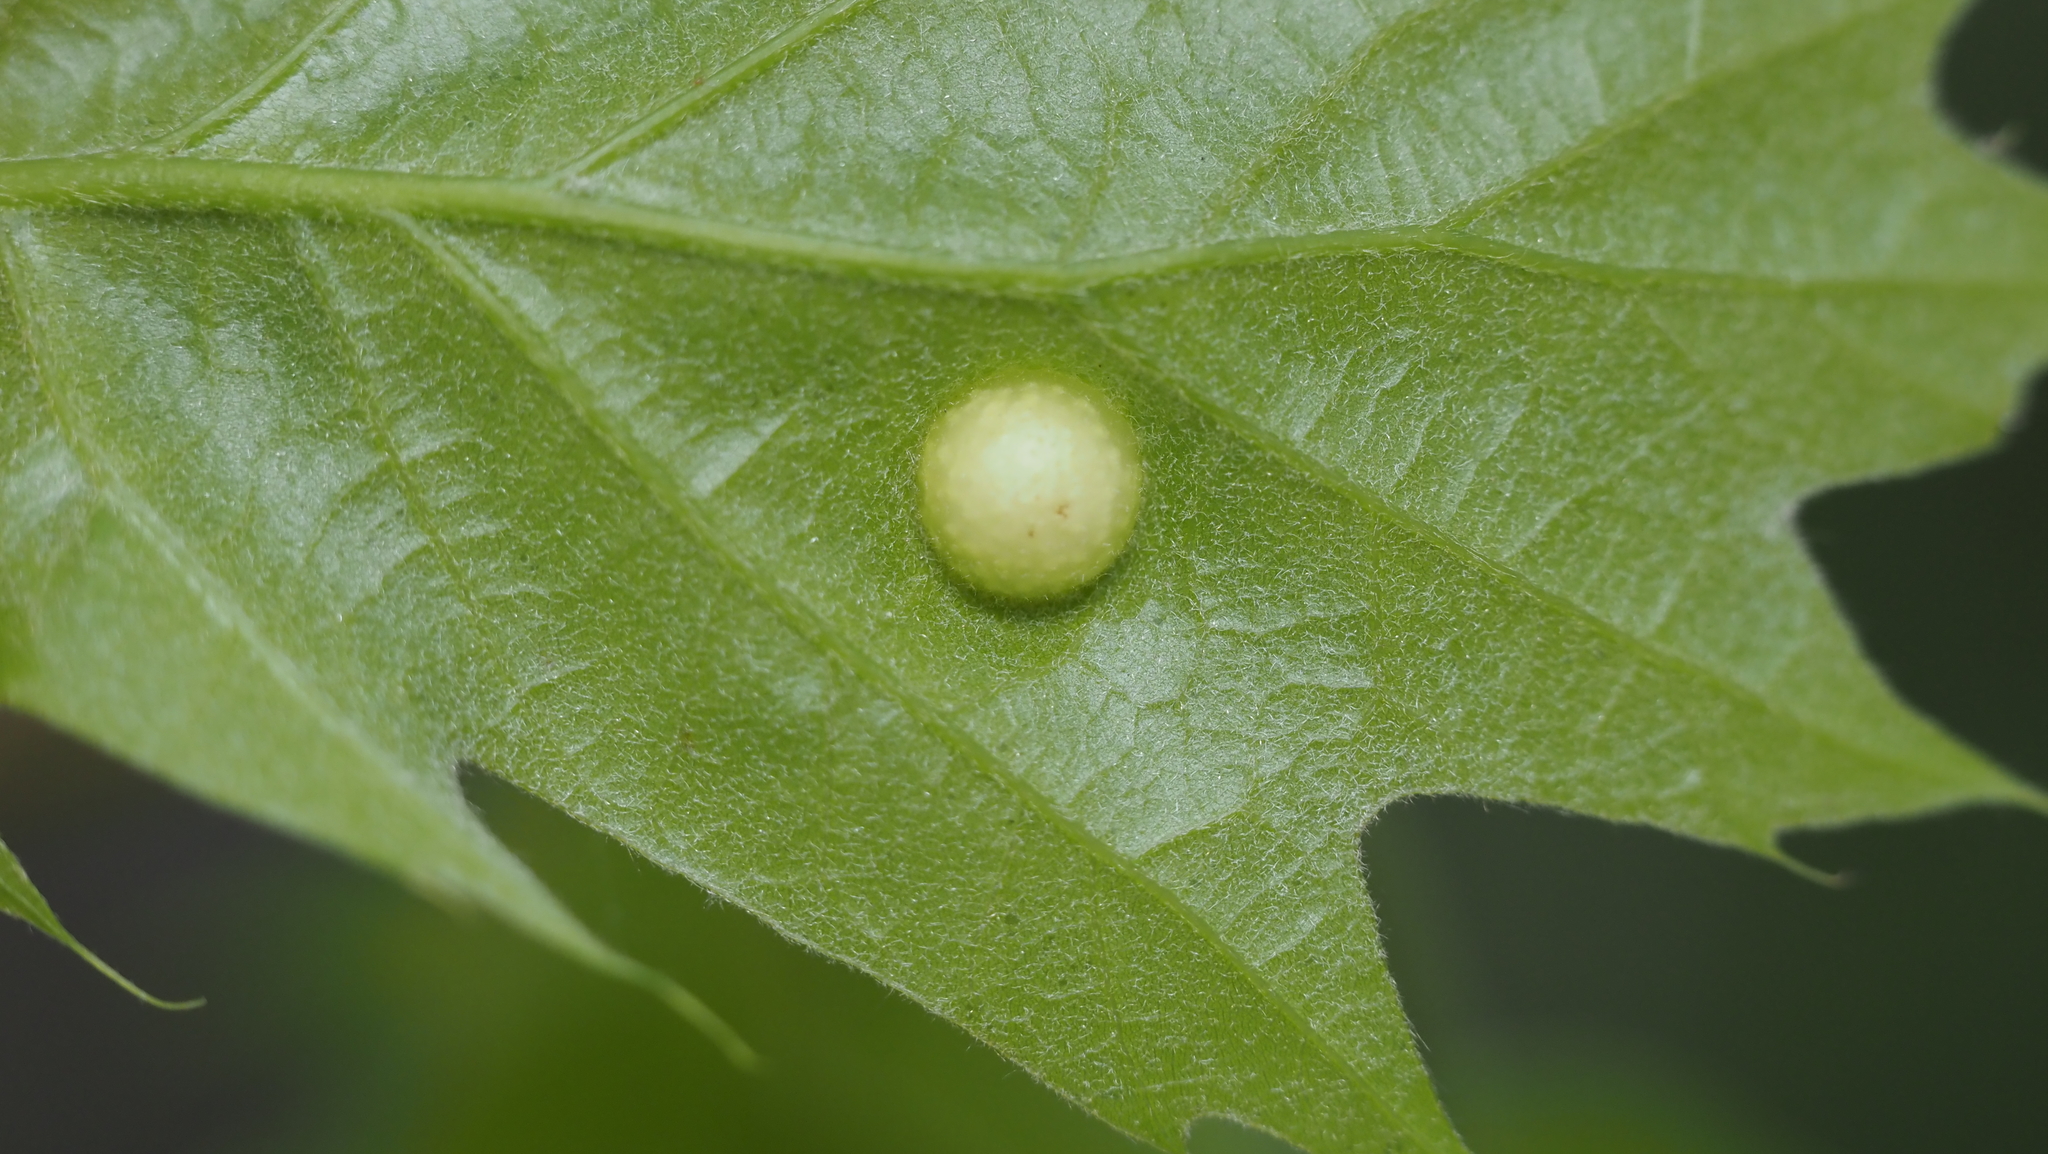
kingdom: Animalia
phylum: Arthropoda
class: Insecta
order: Hymenoptera
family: Cynipidae
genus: Amphibolips
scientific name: Amphibolips
